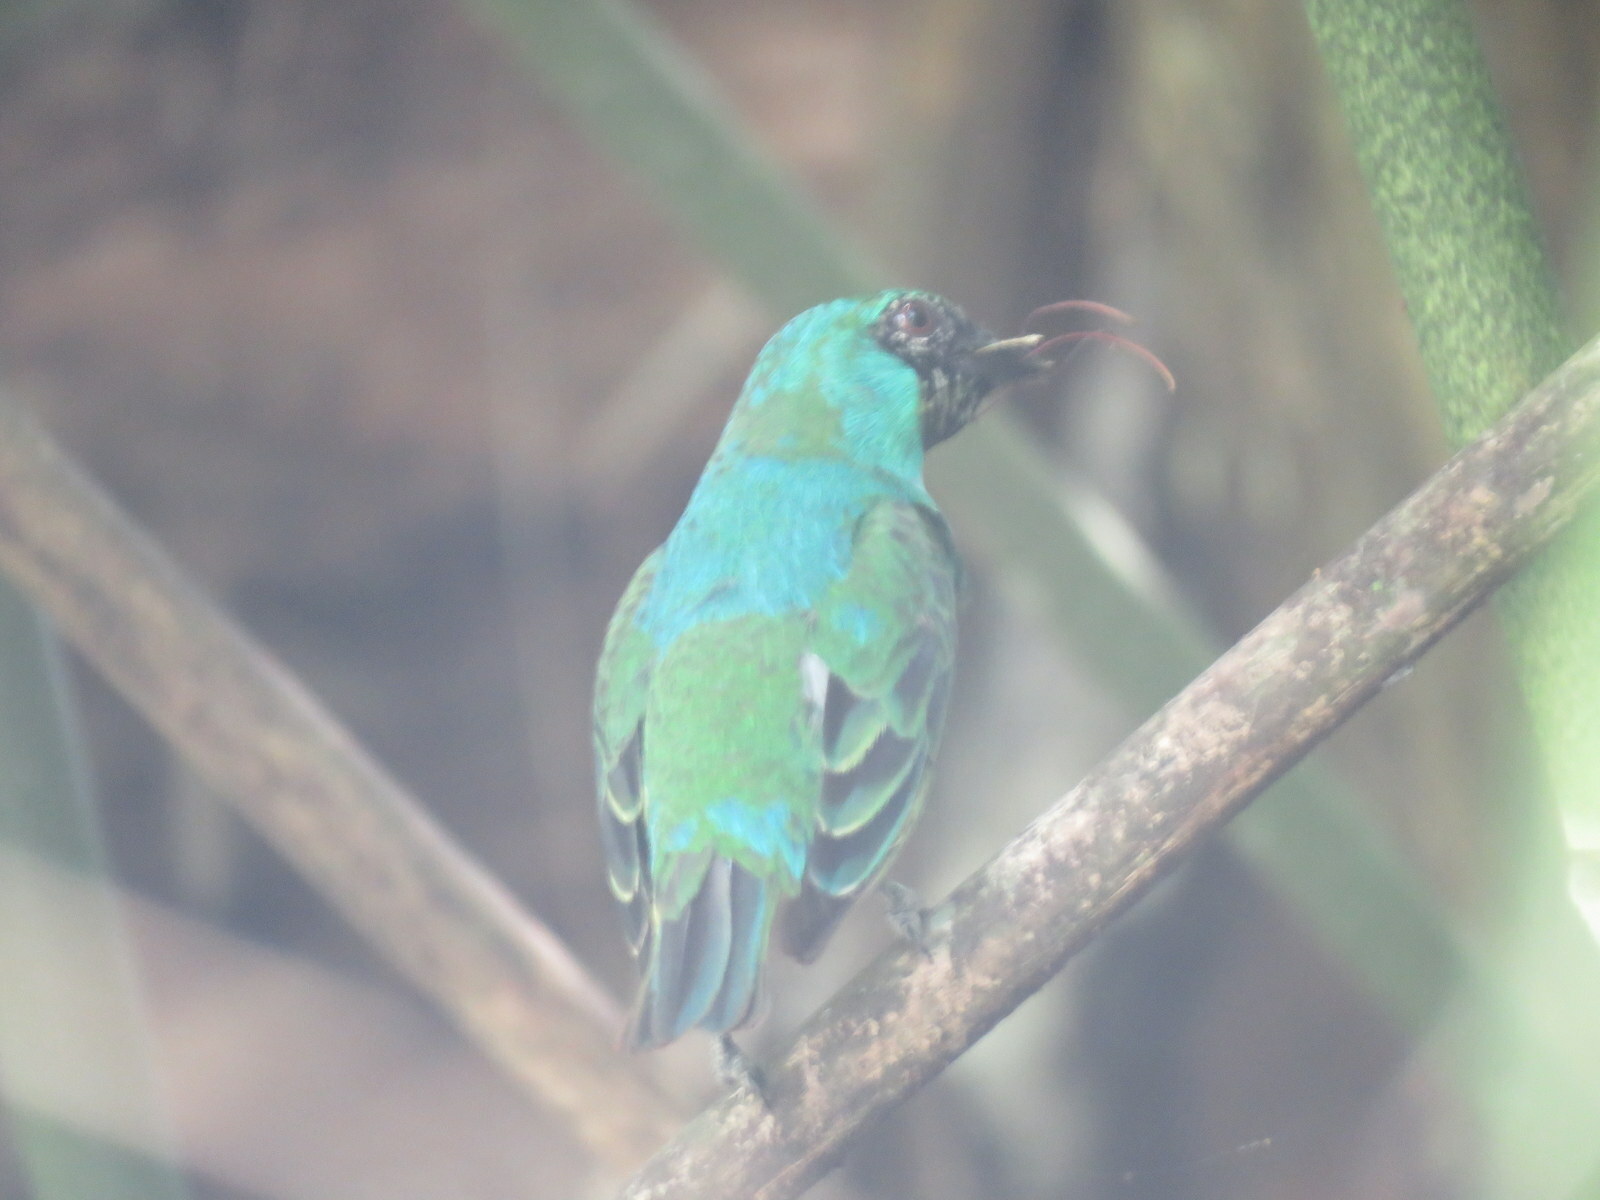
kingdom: Animalia
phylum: Chordata
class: Aves
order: Passeriformes
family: Thraupidae
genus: Tersina
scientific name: Tersina viridis
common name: Swallow tanager
